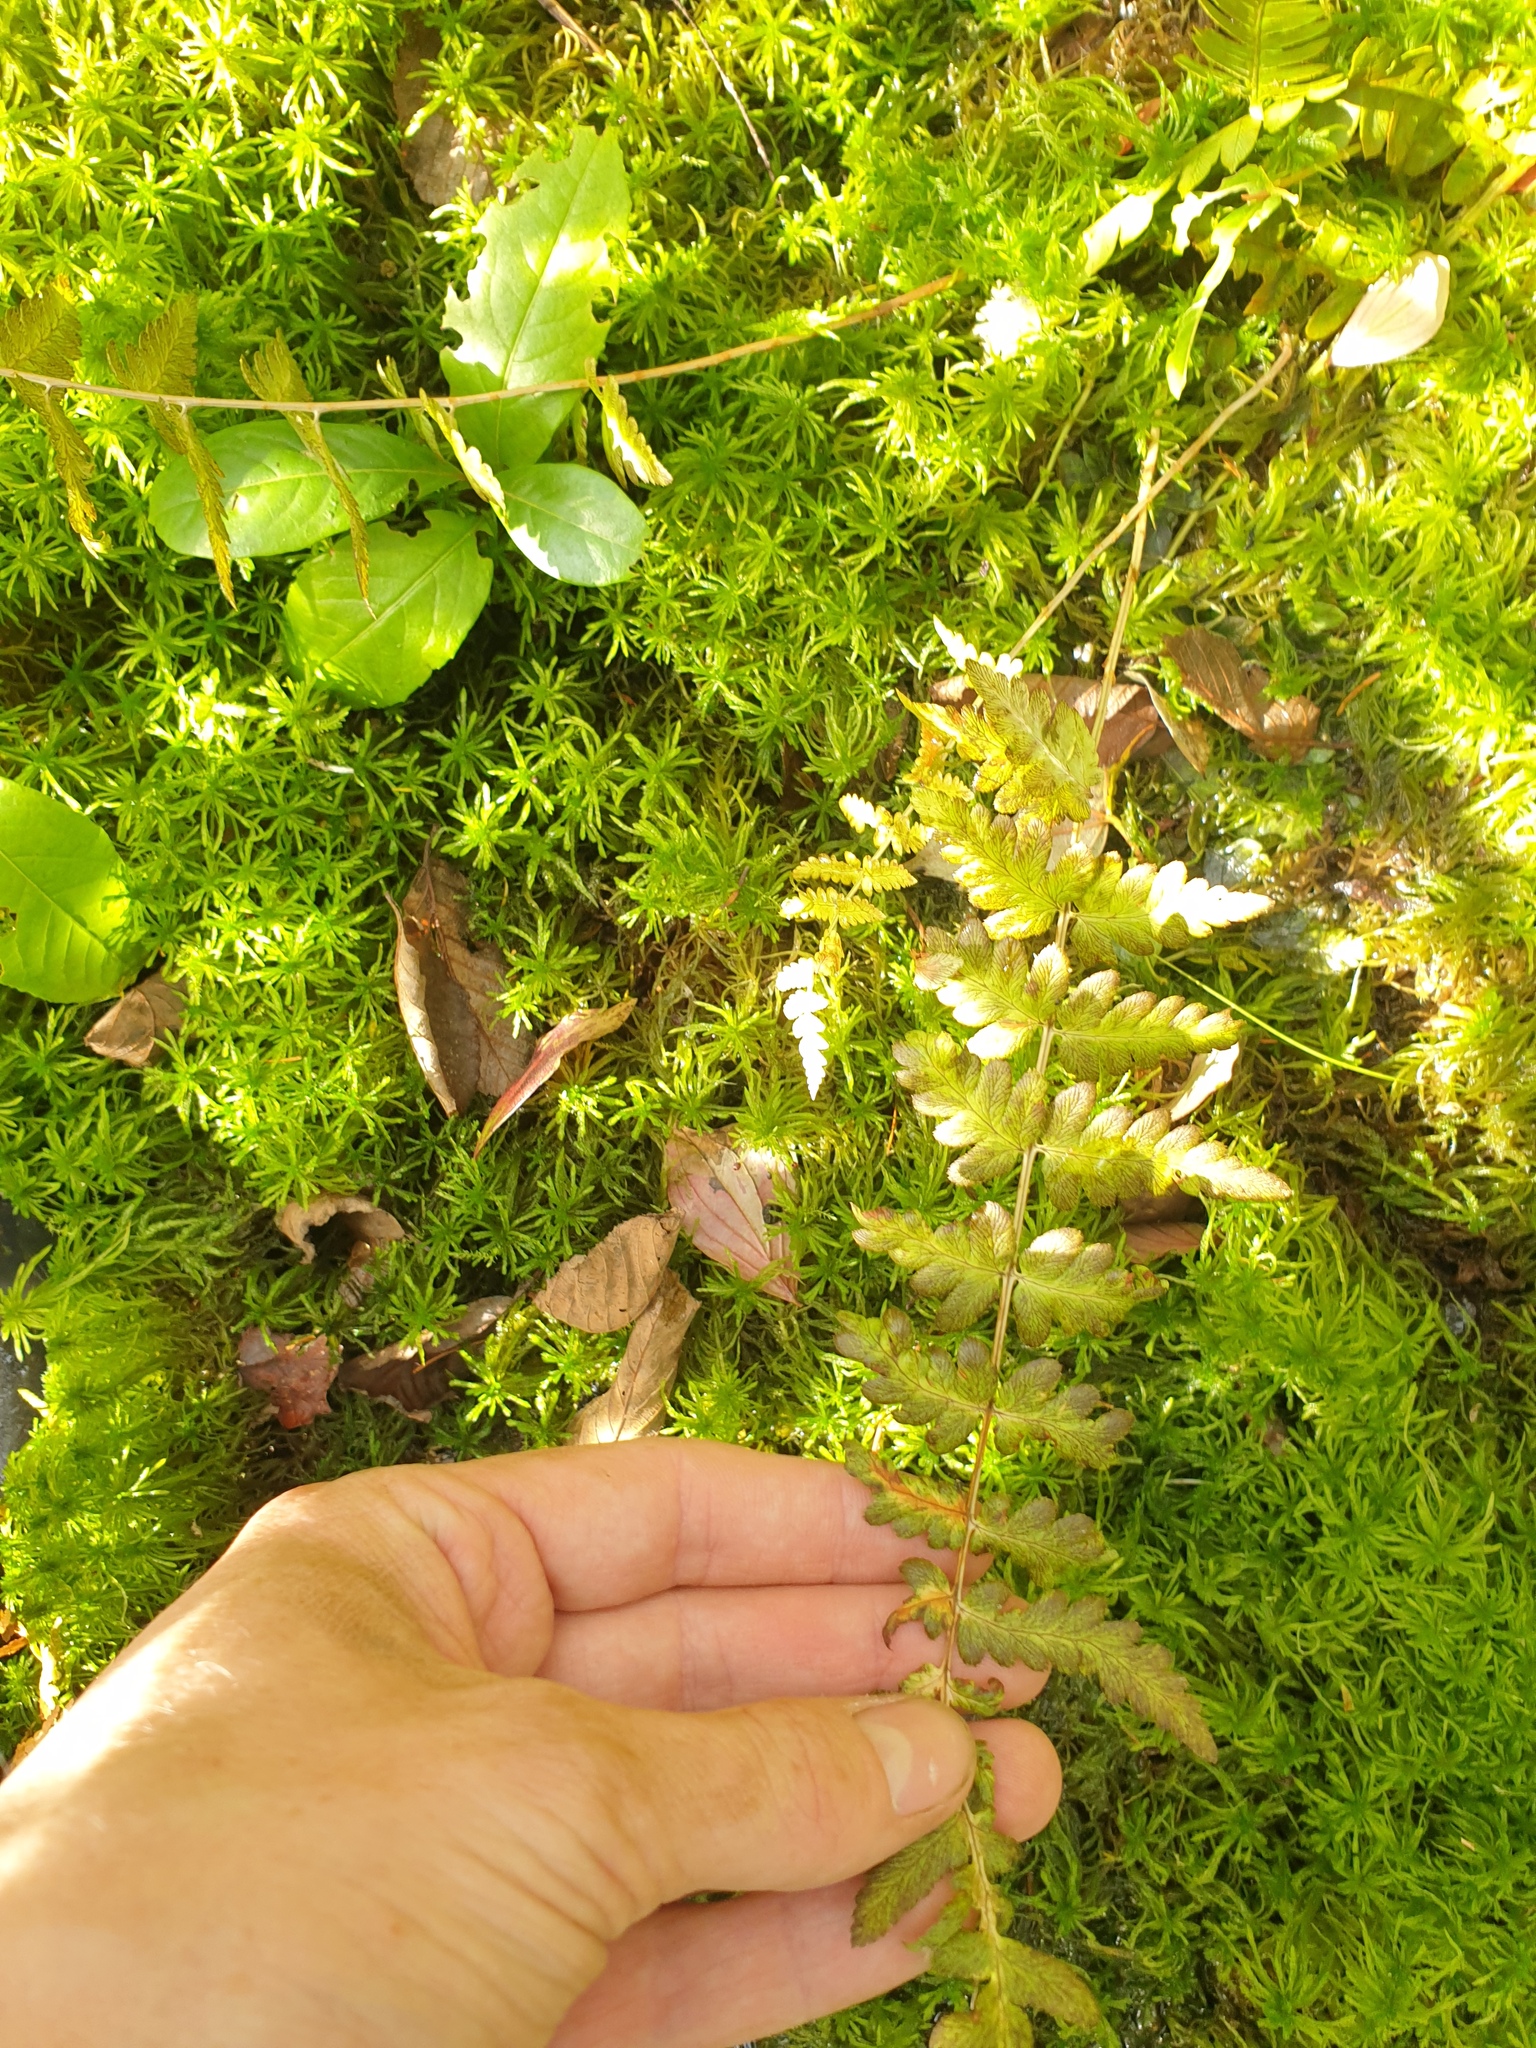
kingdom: Plantae
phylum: Tracheophyta
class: Polypodiopsida
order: Polypodiales
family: Dryopteridaceae
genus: Dryopteris
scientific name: Dryopteris cristata
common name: Crested wood fern
